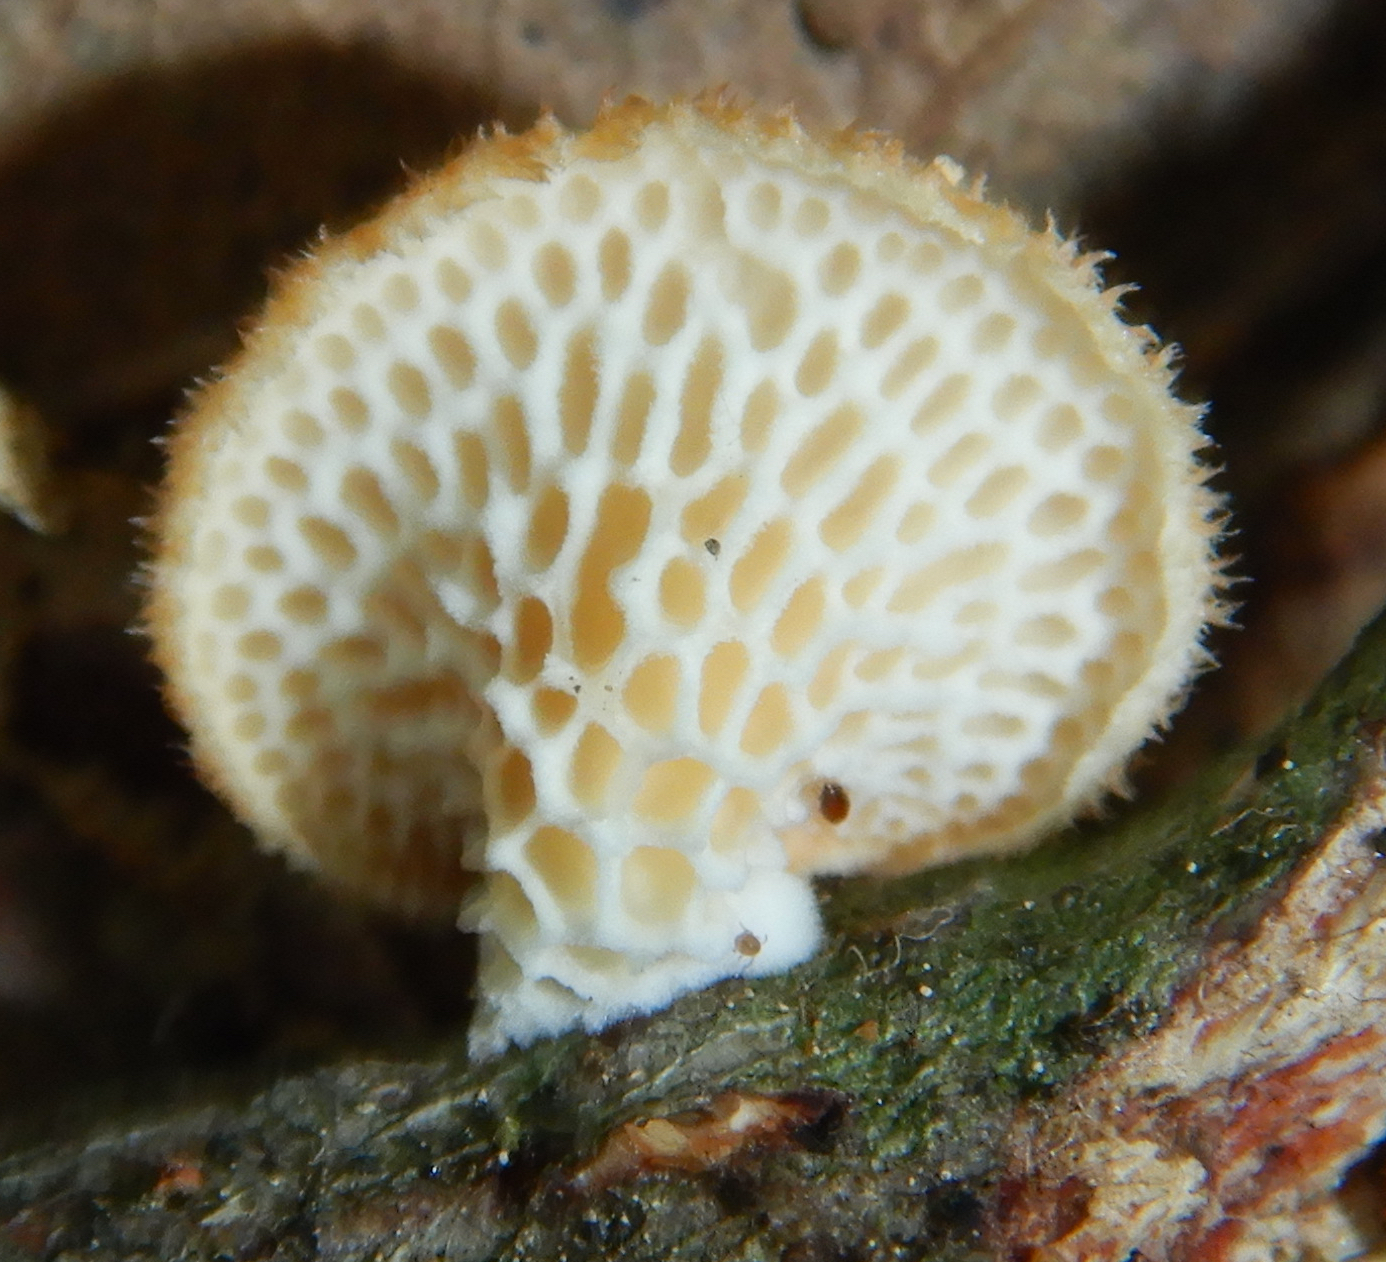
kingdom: Fungi
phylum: Basidiomycota
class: Agaricomycetes
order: Polyporales
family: Polyporaceae
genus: Neofavolus
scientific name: Neofavolus alveolaris
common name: Hexagonal-pored polypore
